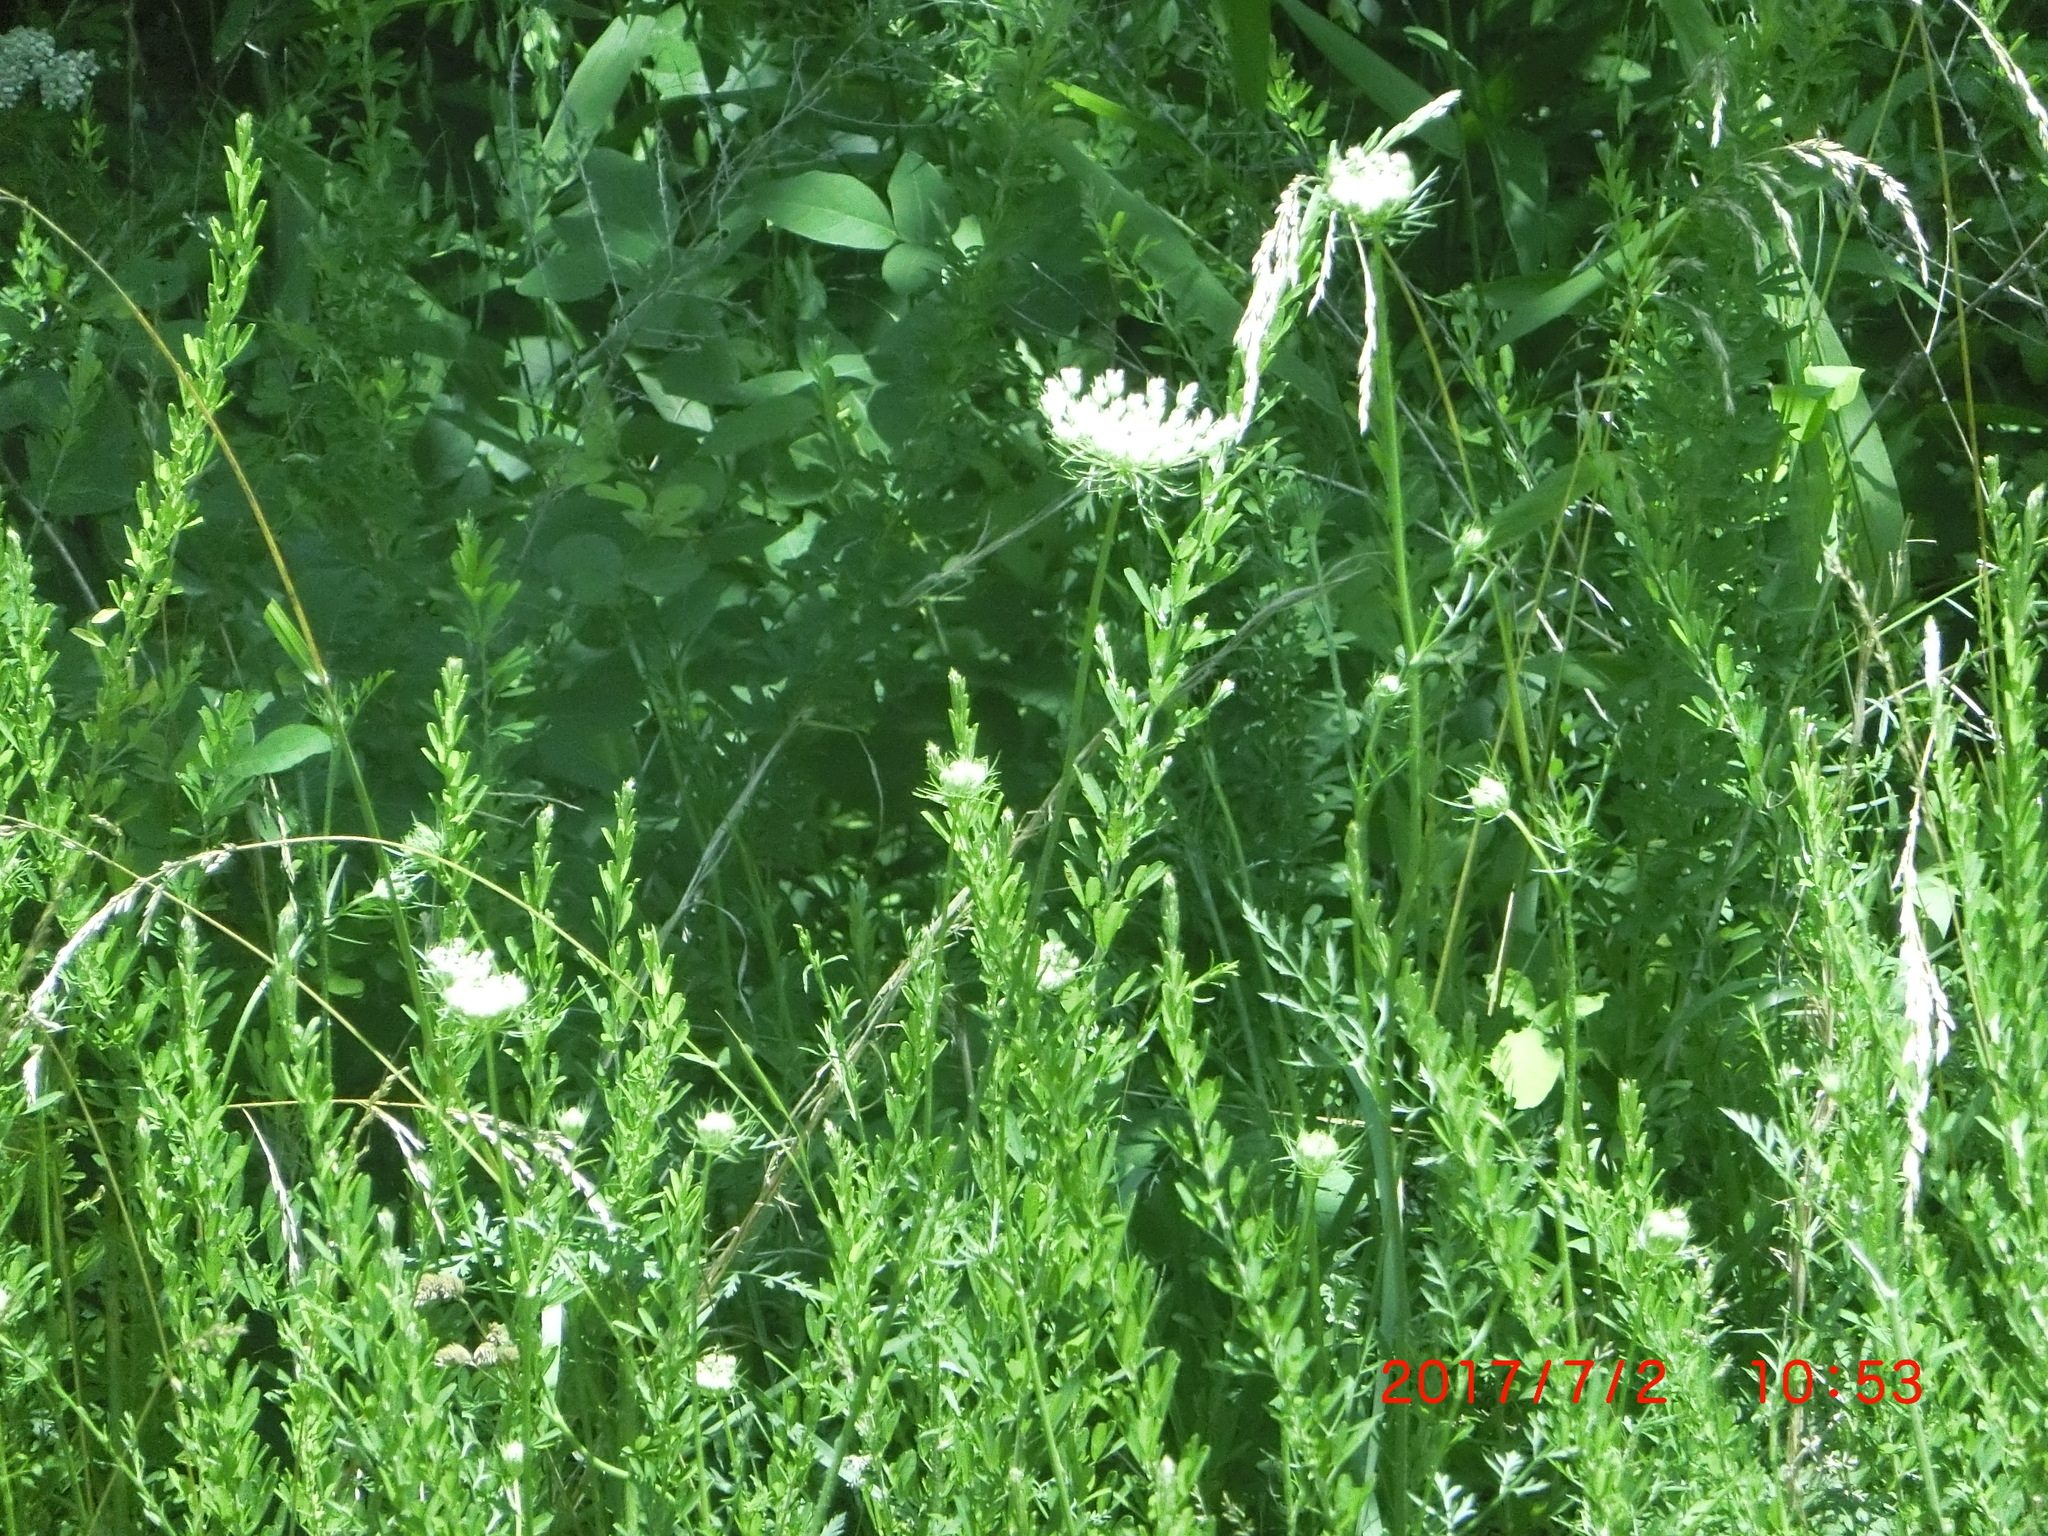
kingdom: Plantae
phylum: Tracheophyta
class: Magnoliopsida
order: Apiales
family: Apiaceae
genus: Daucus
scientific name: Daucus carota
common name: Wild carrot
